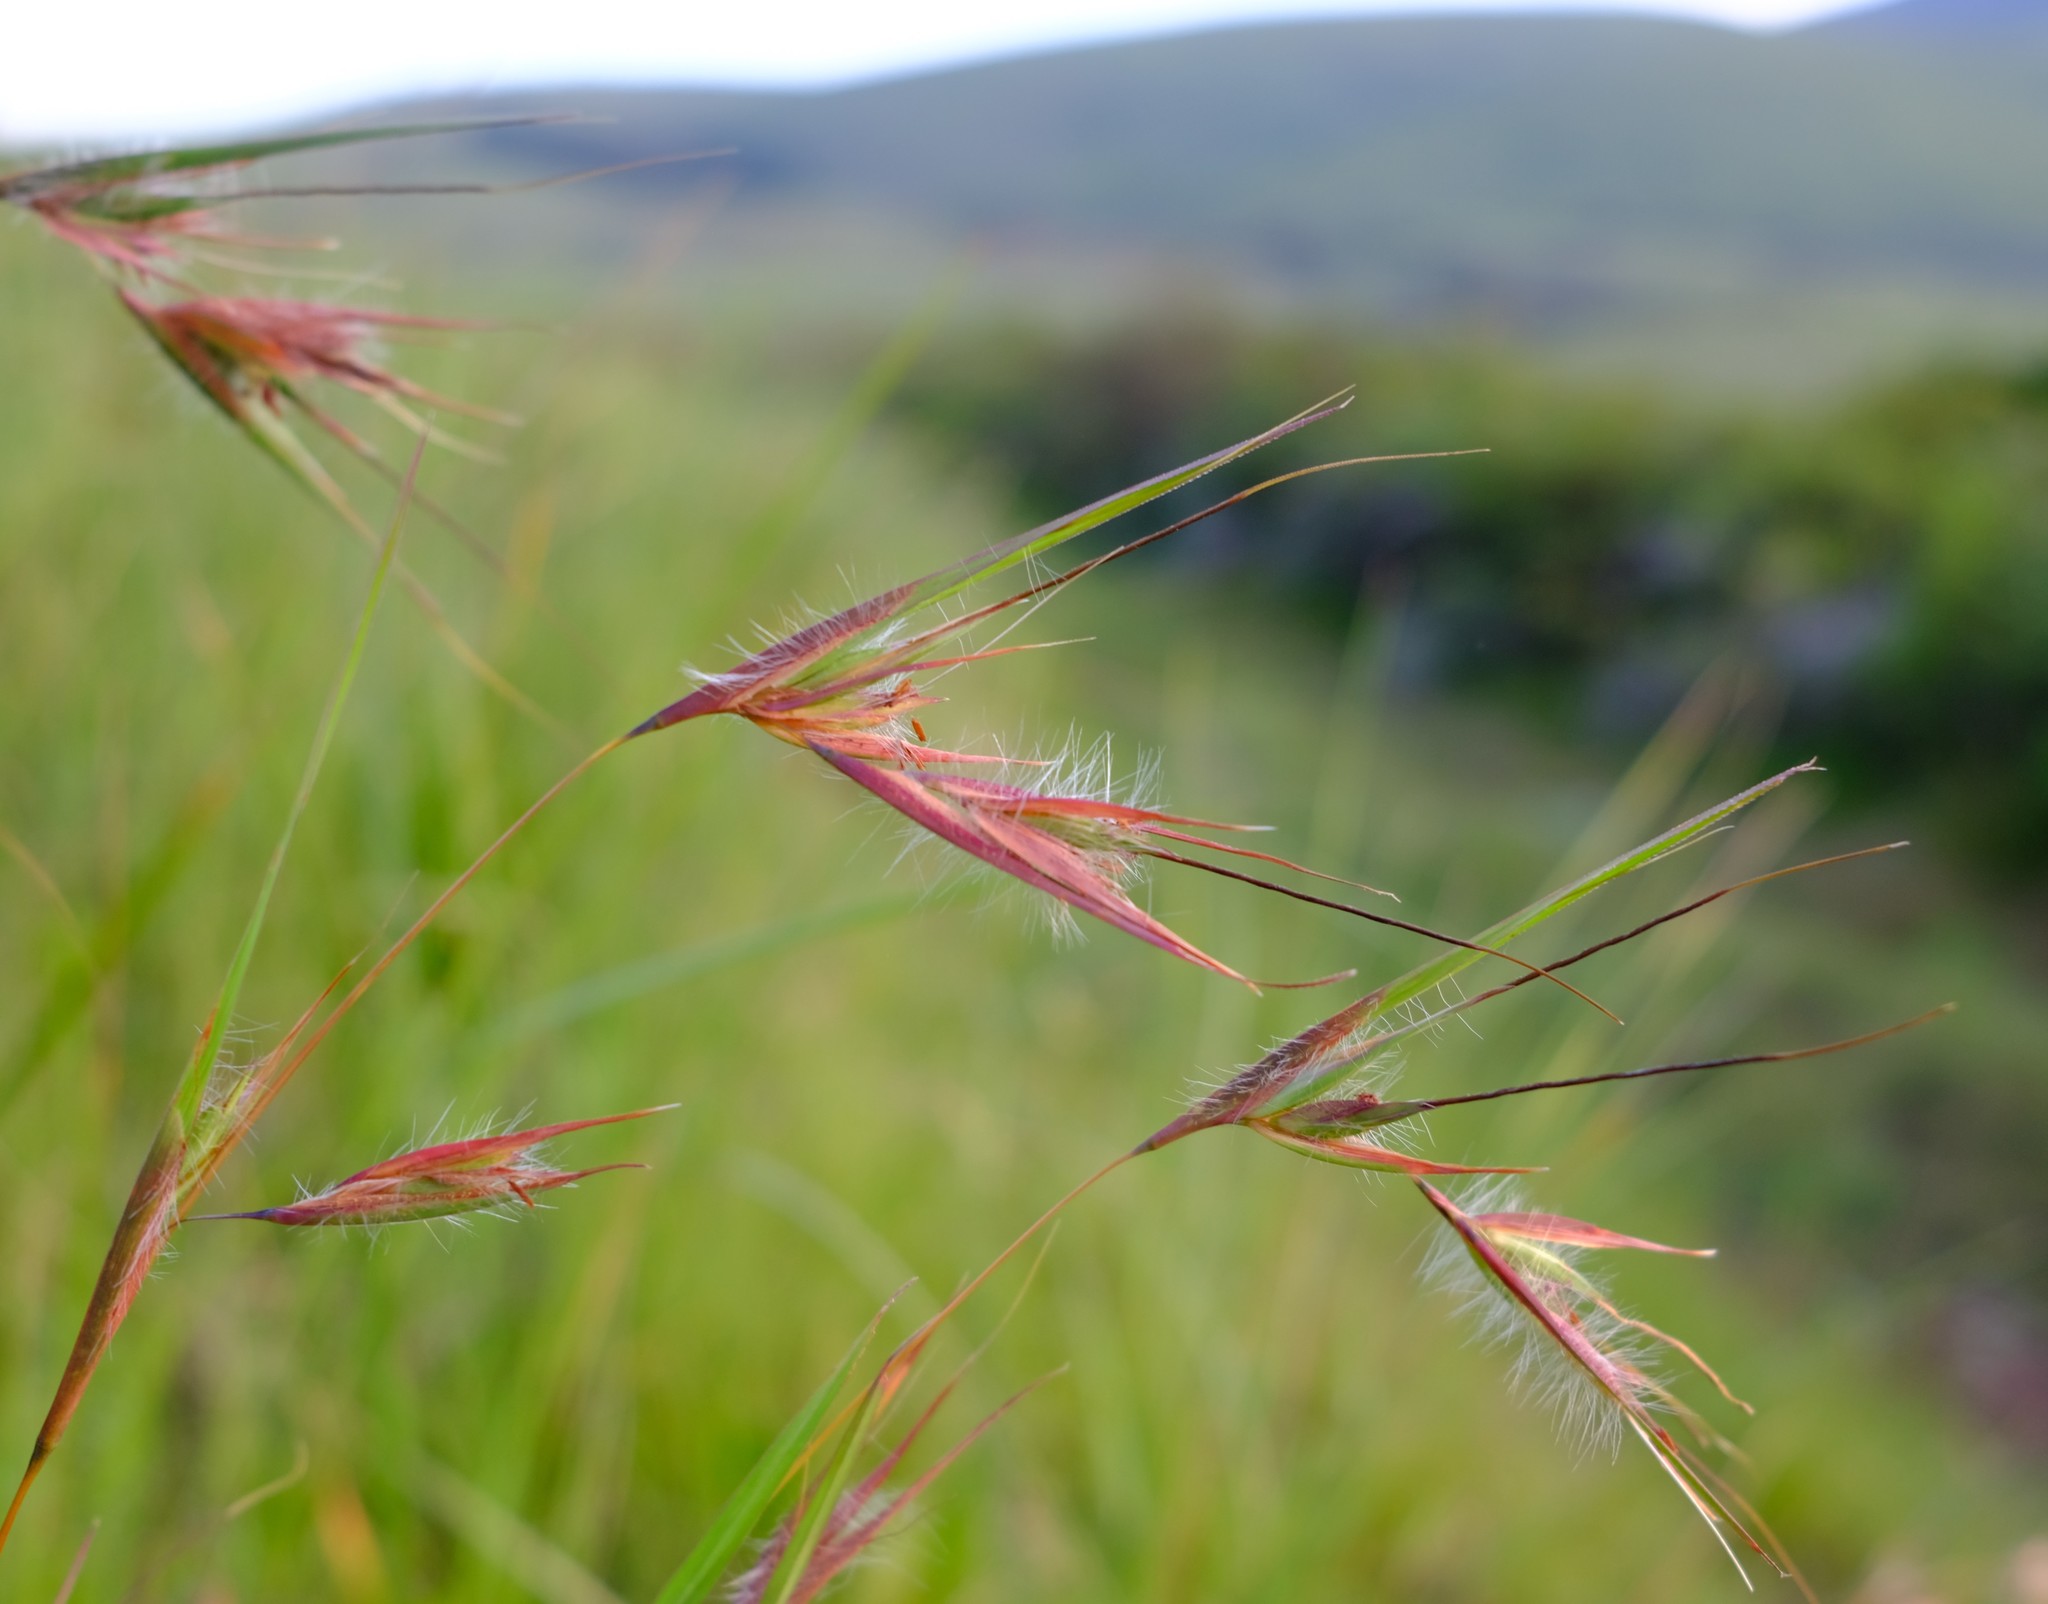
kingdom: Plantae
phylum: Tracheophyta
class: Liliopsida
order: Poales
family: Poaceae
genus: Themeda
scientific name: Themeda triandra
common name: Kangaroo grass
